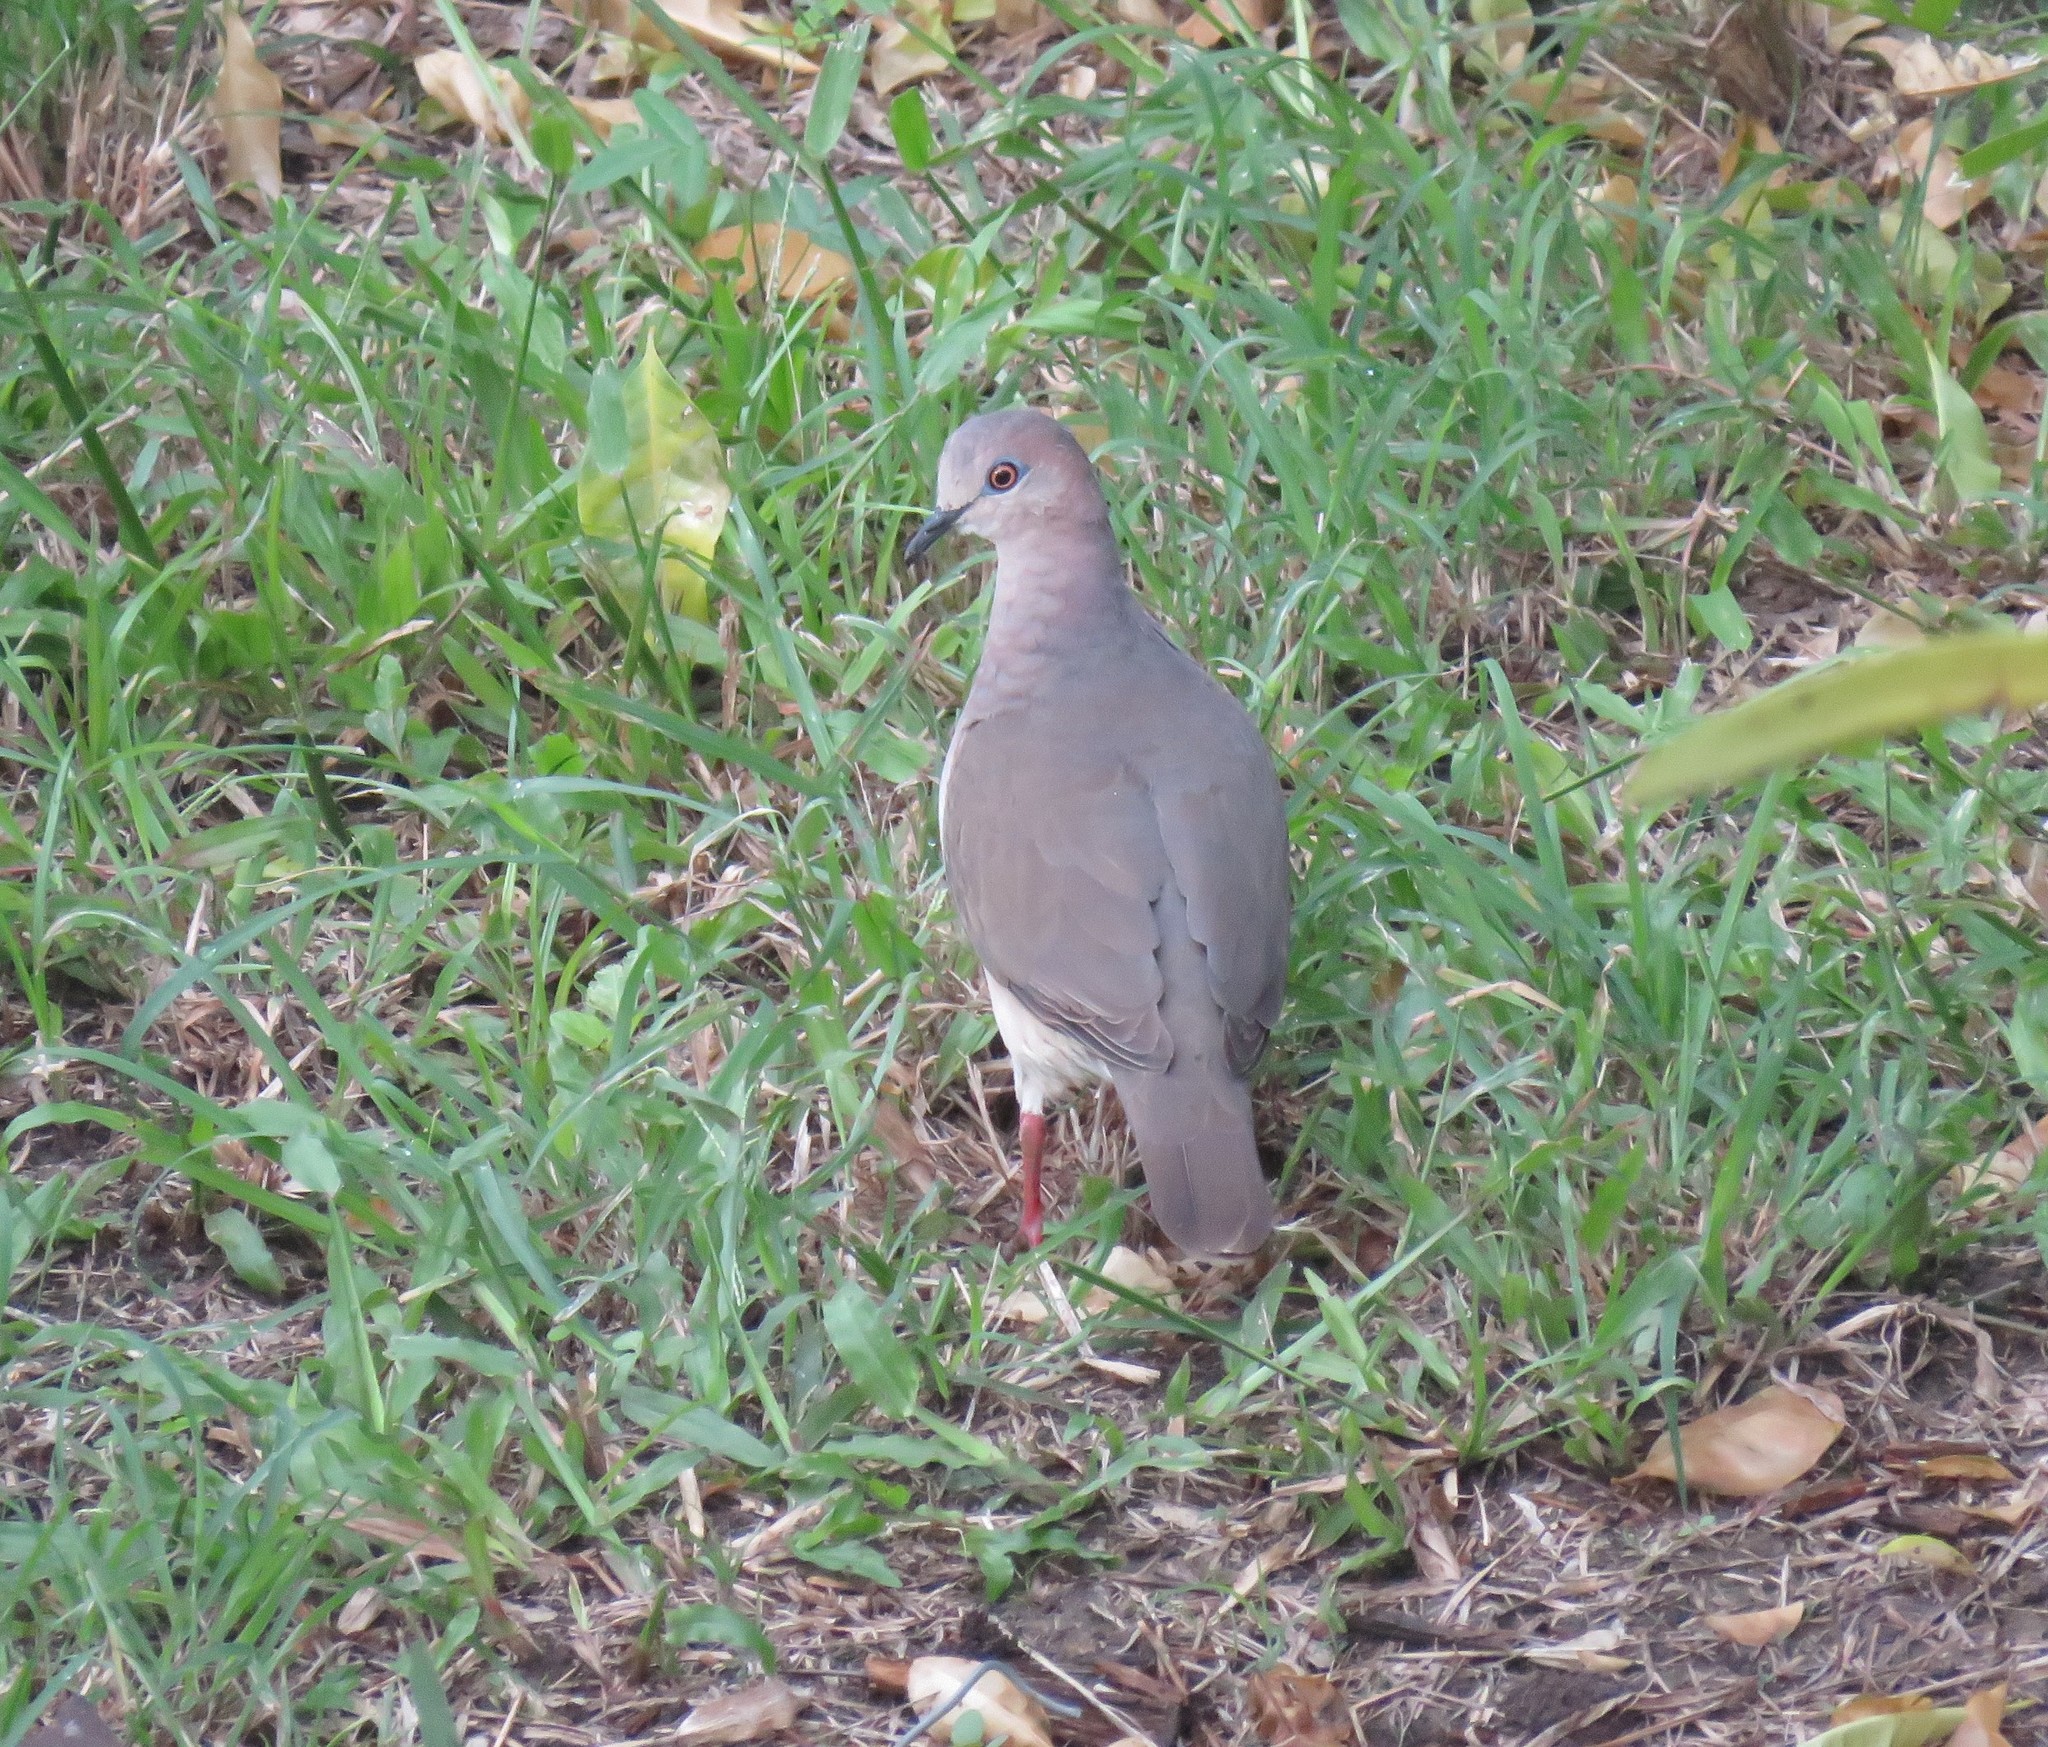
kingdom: Animalia
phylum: Chordata
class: Aves
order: Columbiformes
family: Columbidae
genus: Leptotila
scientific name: Leptotila verreauxi
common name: White-tipped dove
